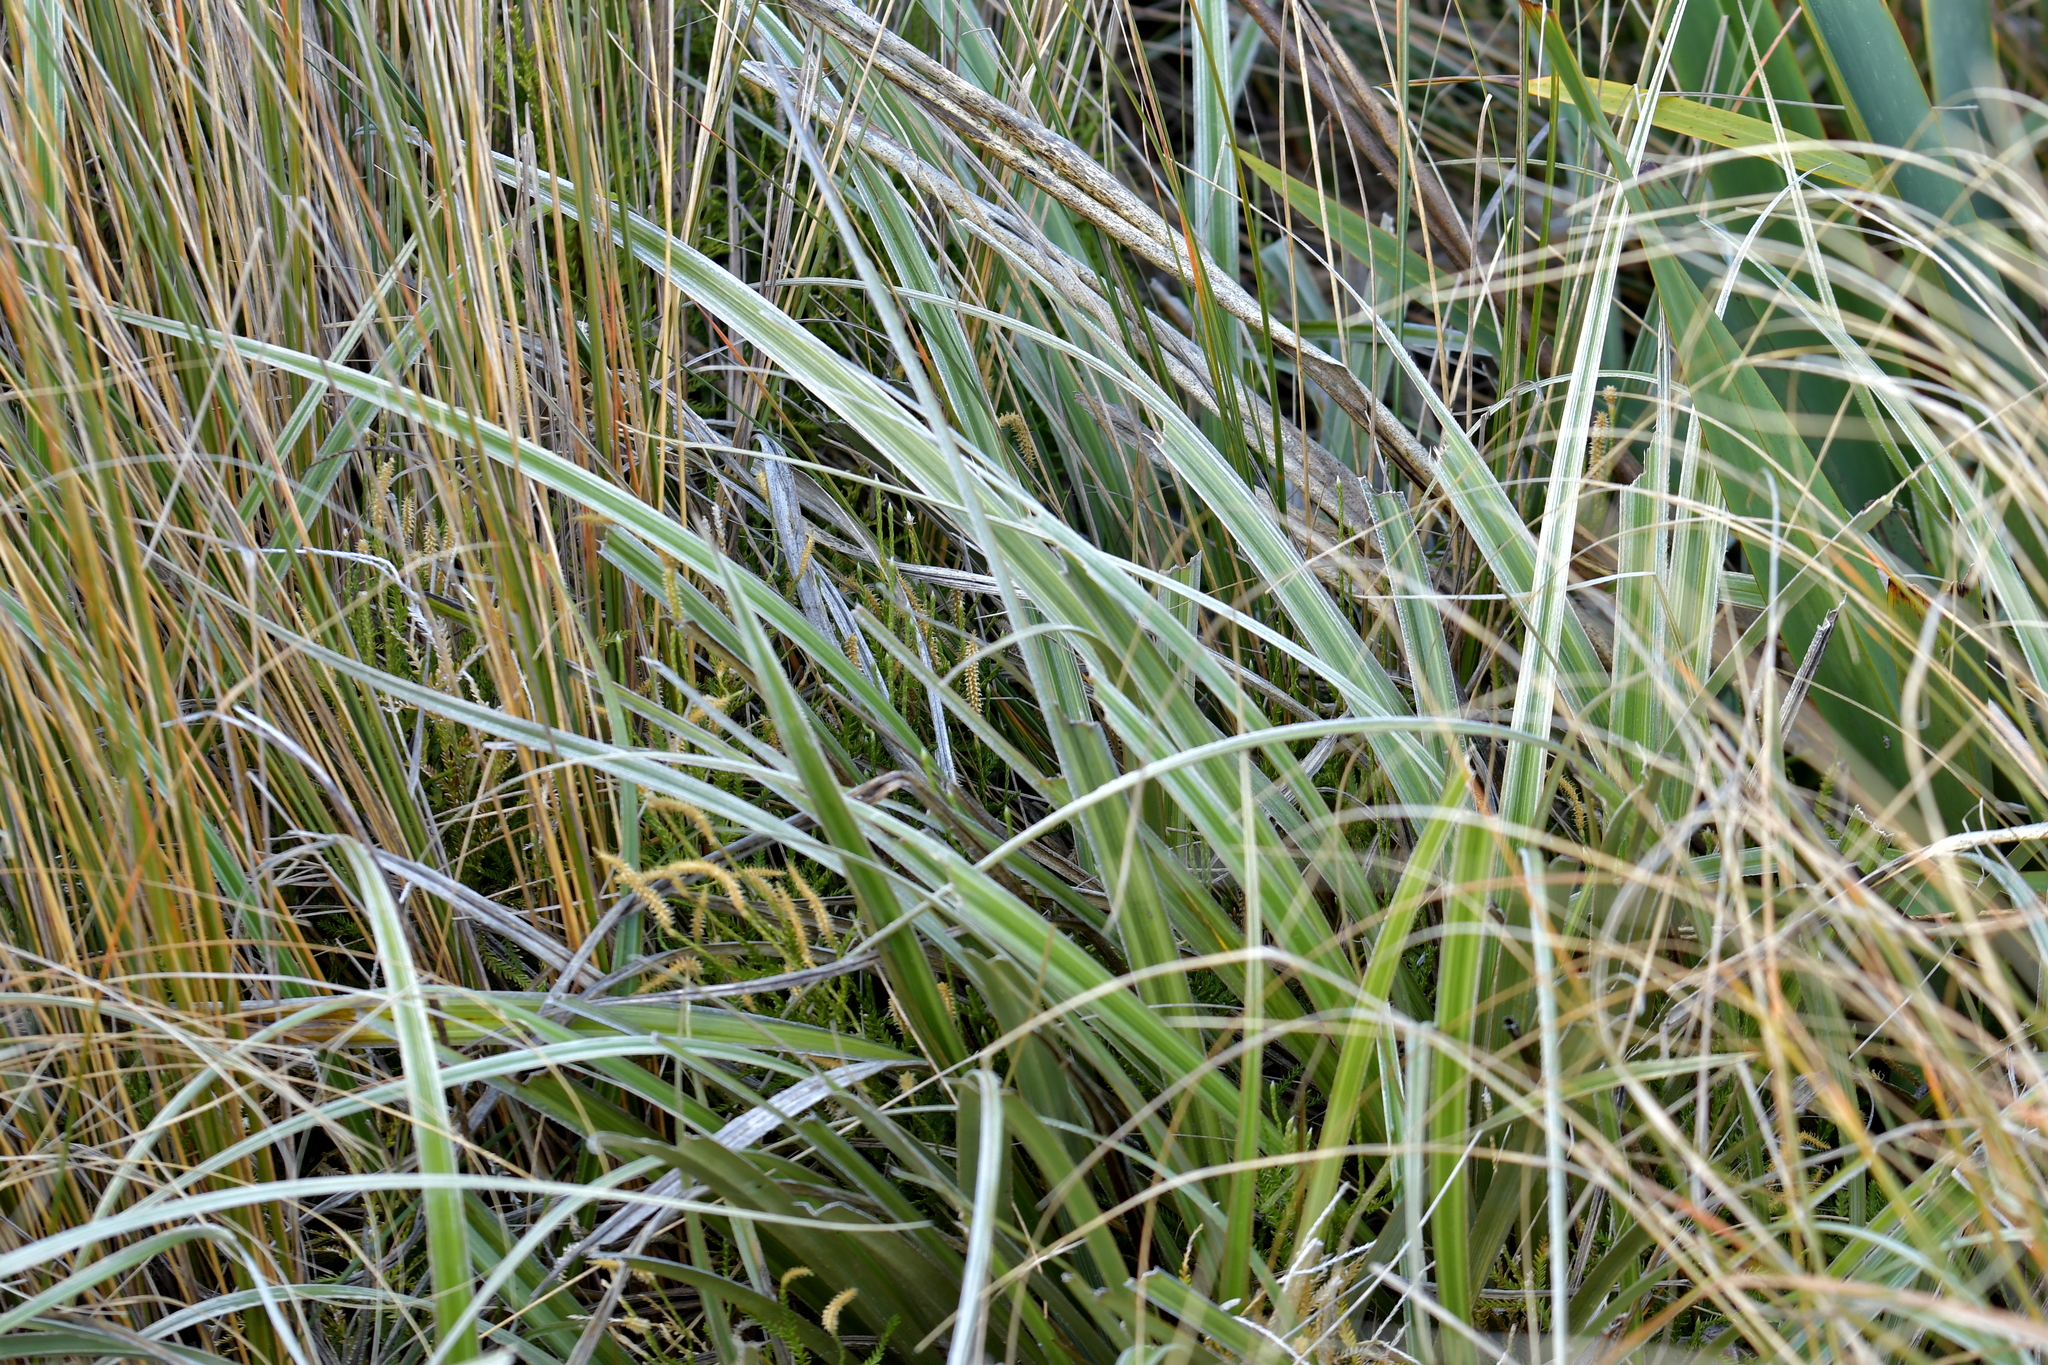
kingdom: Plantae
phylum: Tracheophyta
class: Liliopsida
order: Asparagales
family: Asteliaceae
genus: Astelia
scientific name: Astelia nervosa
